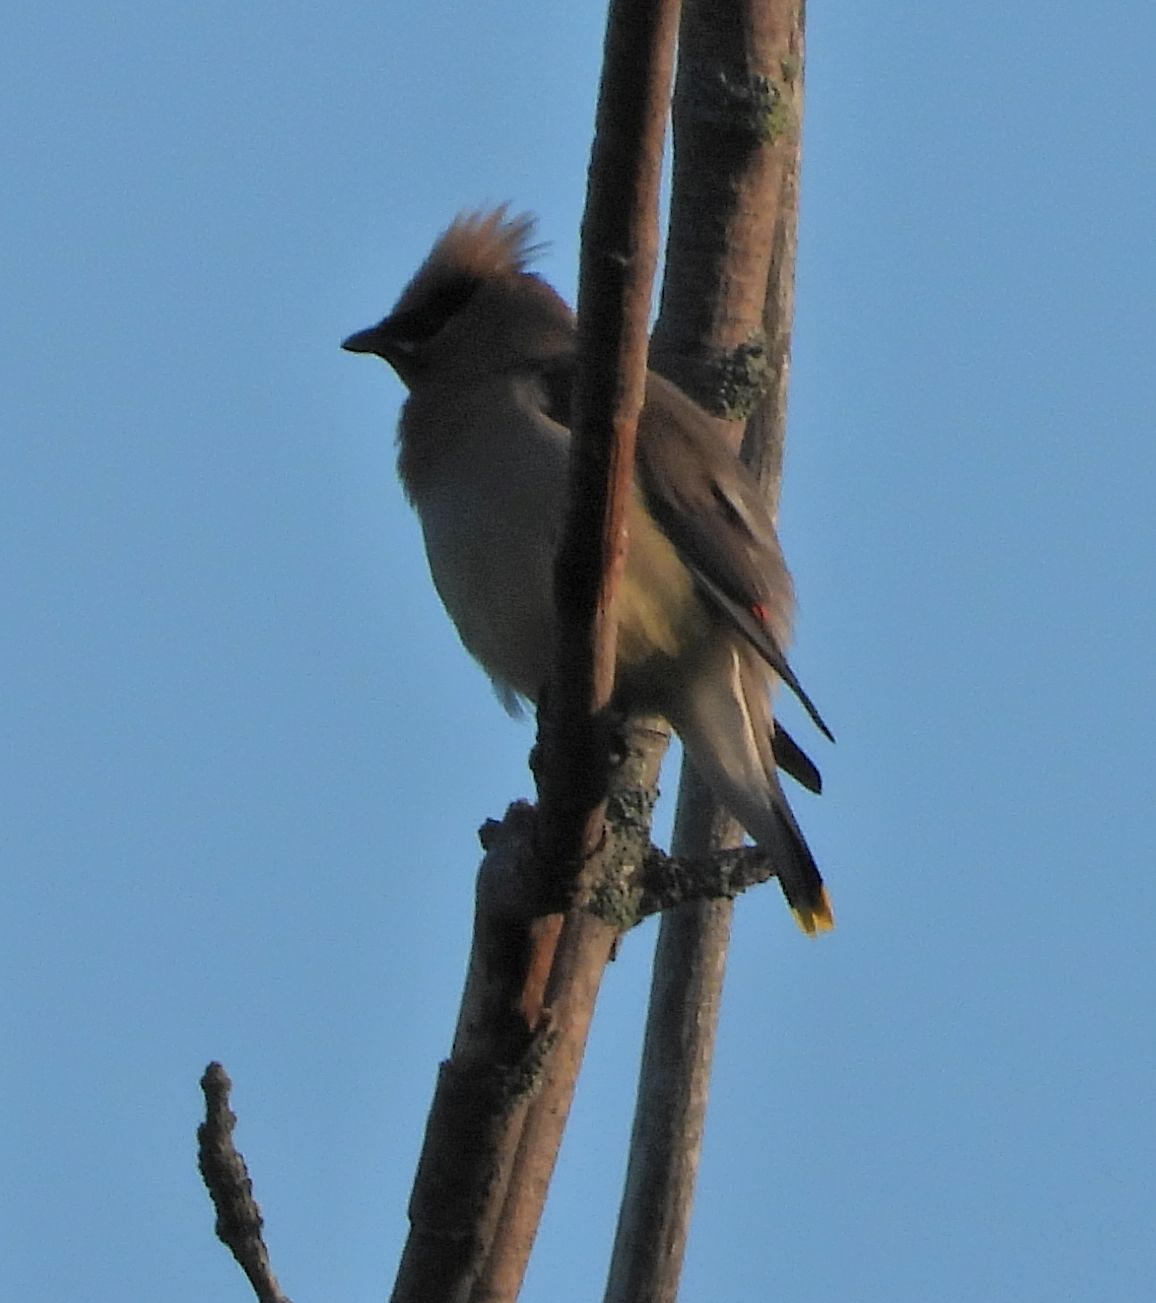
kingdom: Animalia
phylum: Chordata
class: Aves
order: Passeriformes
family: Bombycillidae
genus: Bombycilla
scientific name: Bombycilla cedrorum
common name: Cedar waxwing
